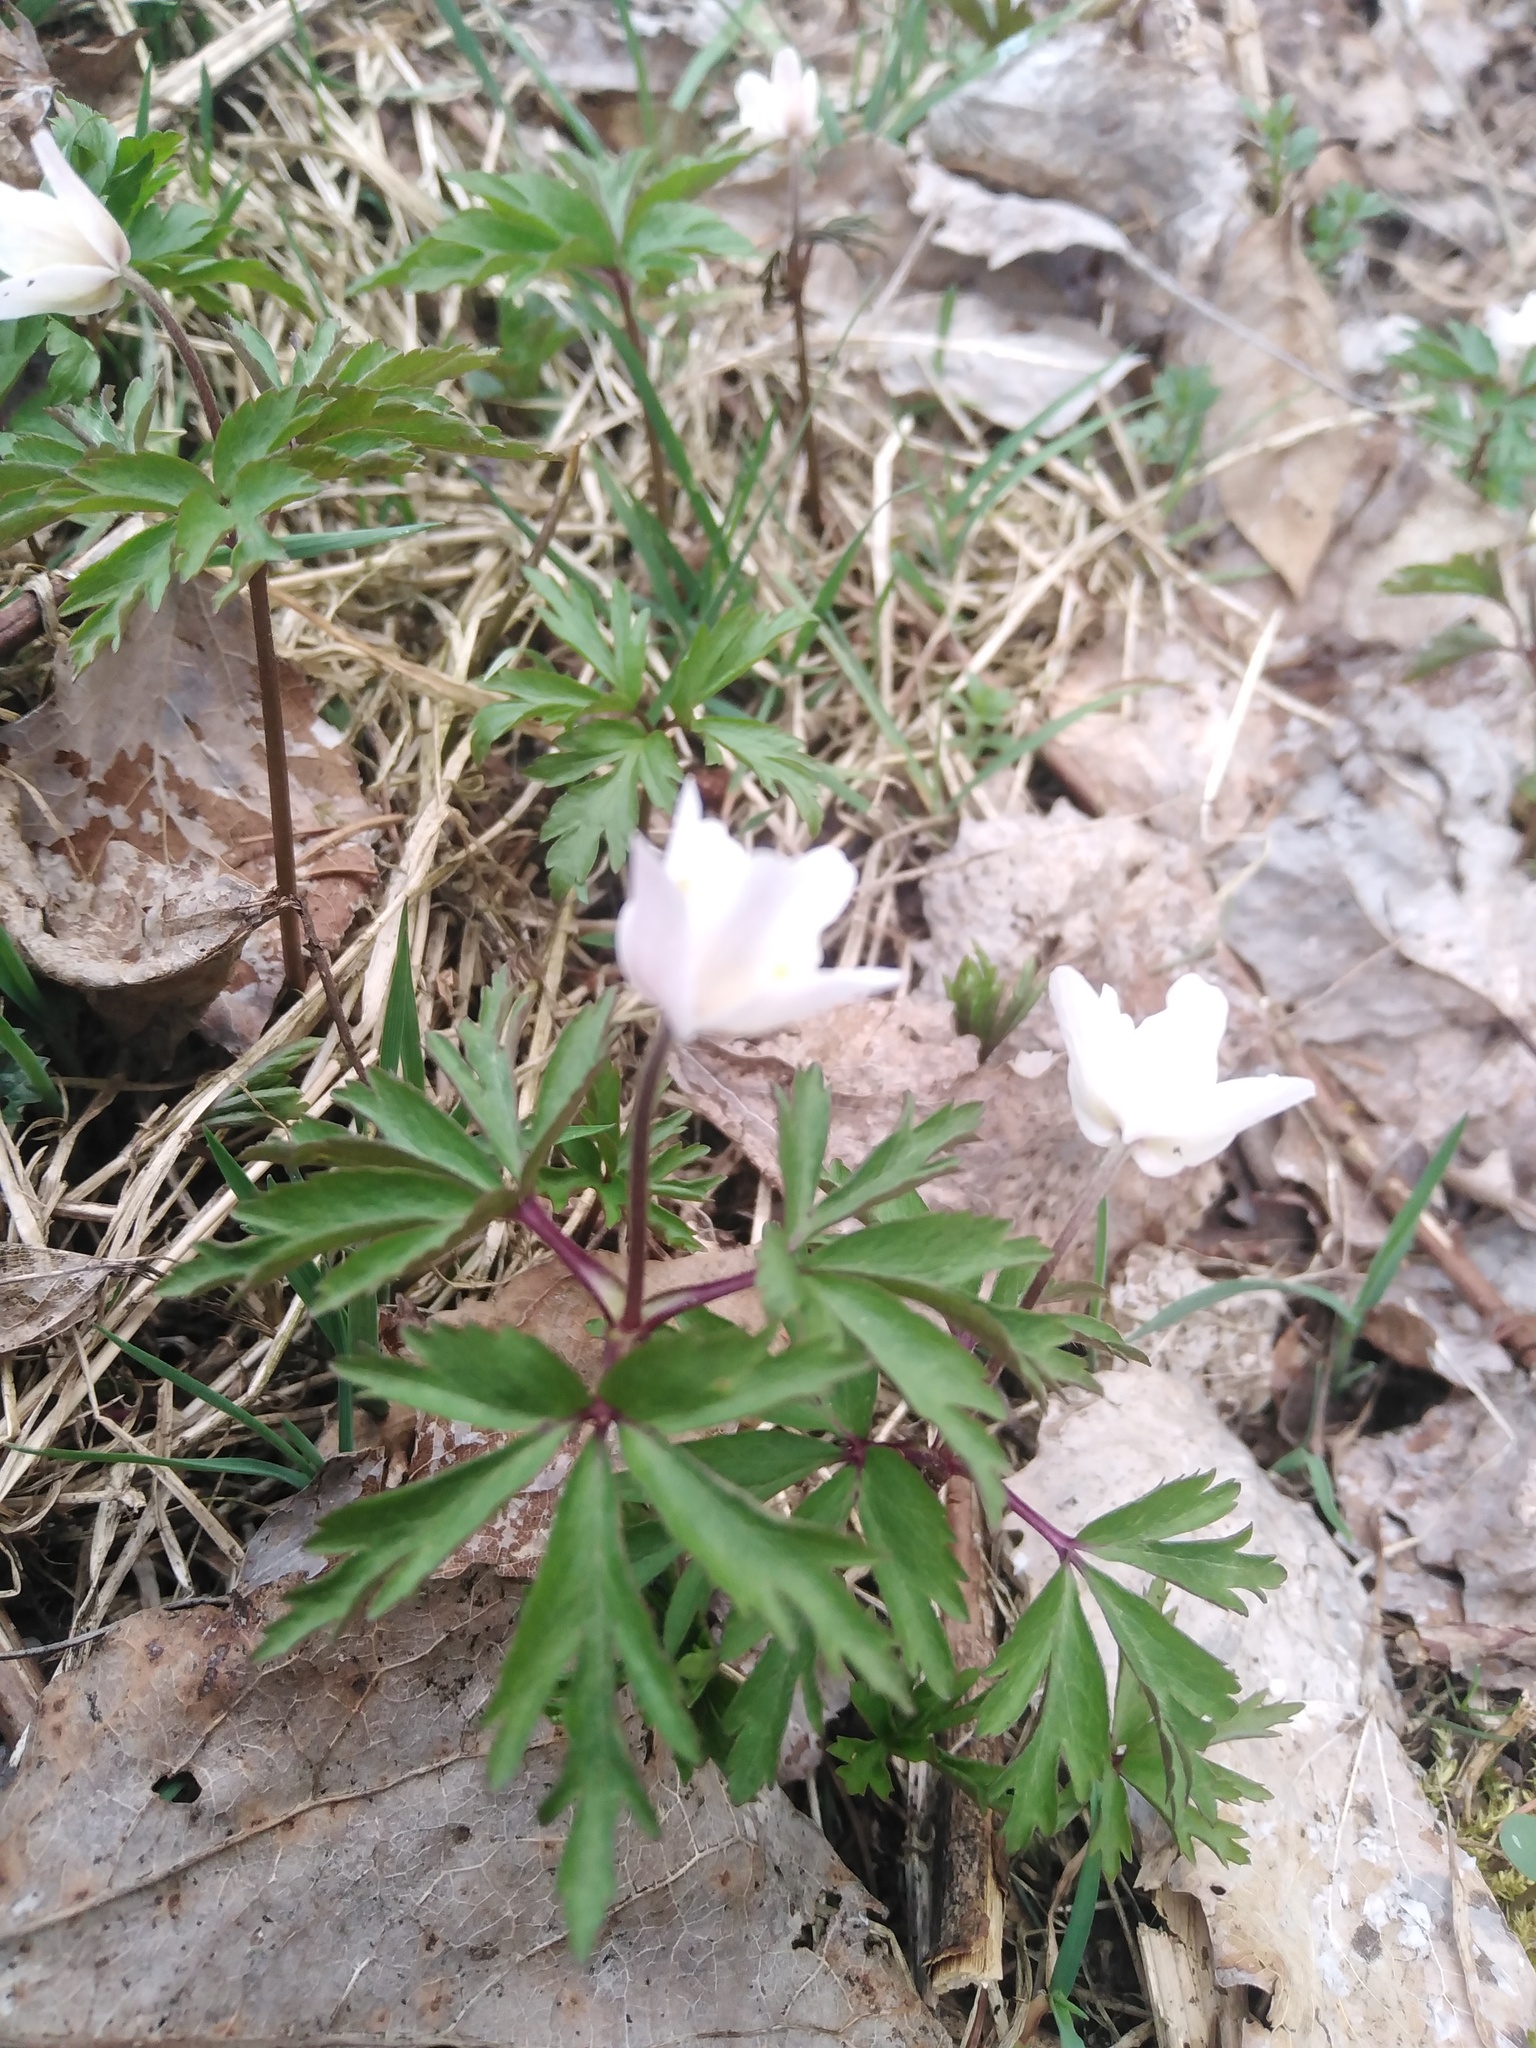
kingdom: Plantae
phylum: Tracheophyta
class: Magnoliopsida
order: Ranunculales
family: Ranunculaceae
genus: Anemone
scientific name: Anemone nemorosa
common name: Wood anemone
